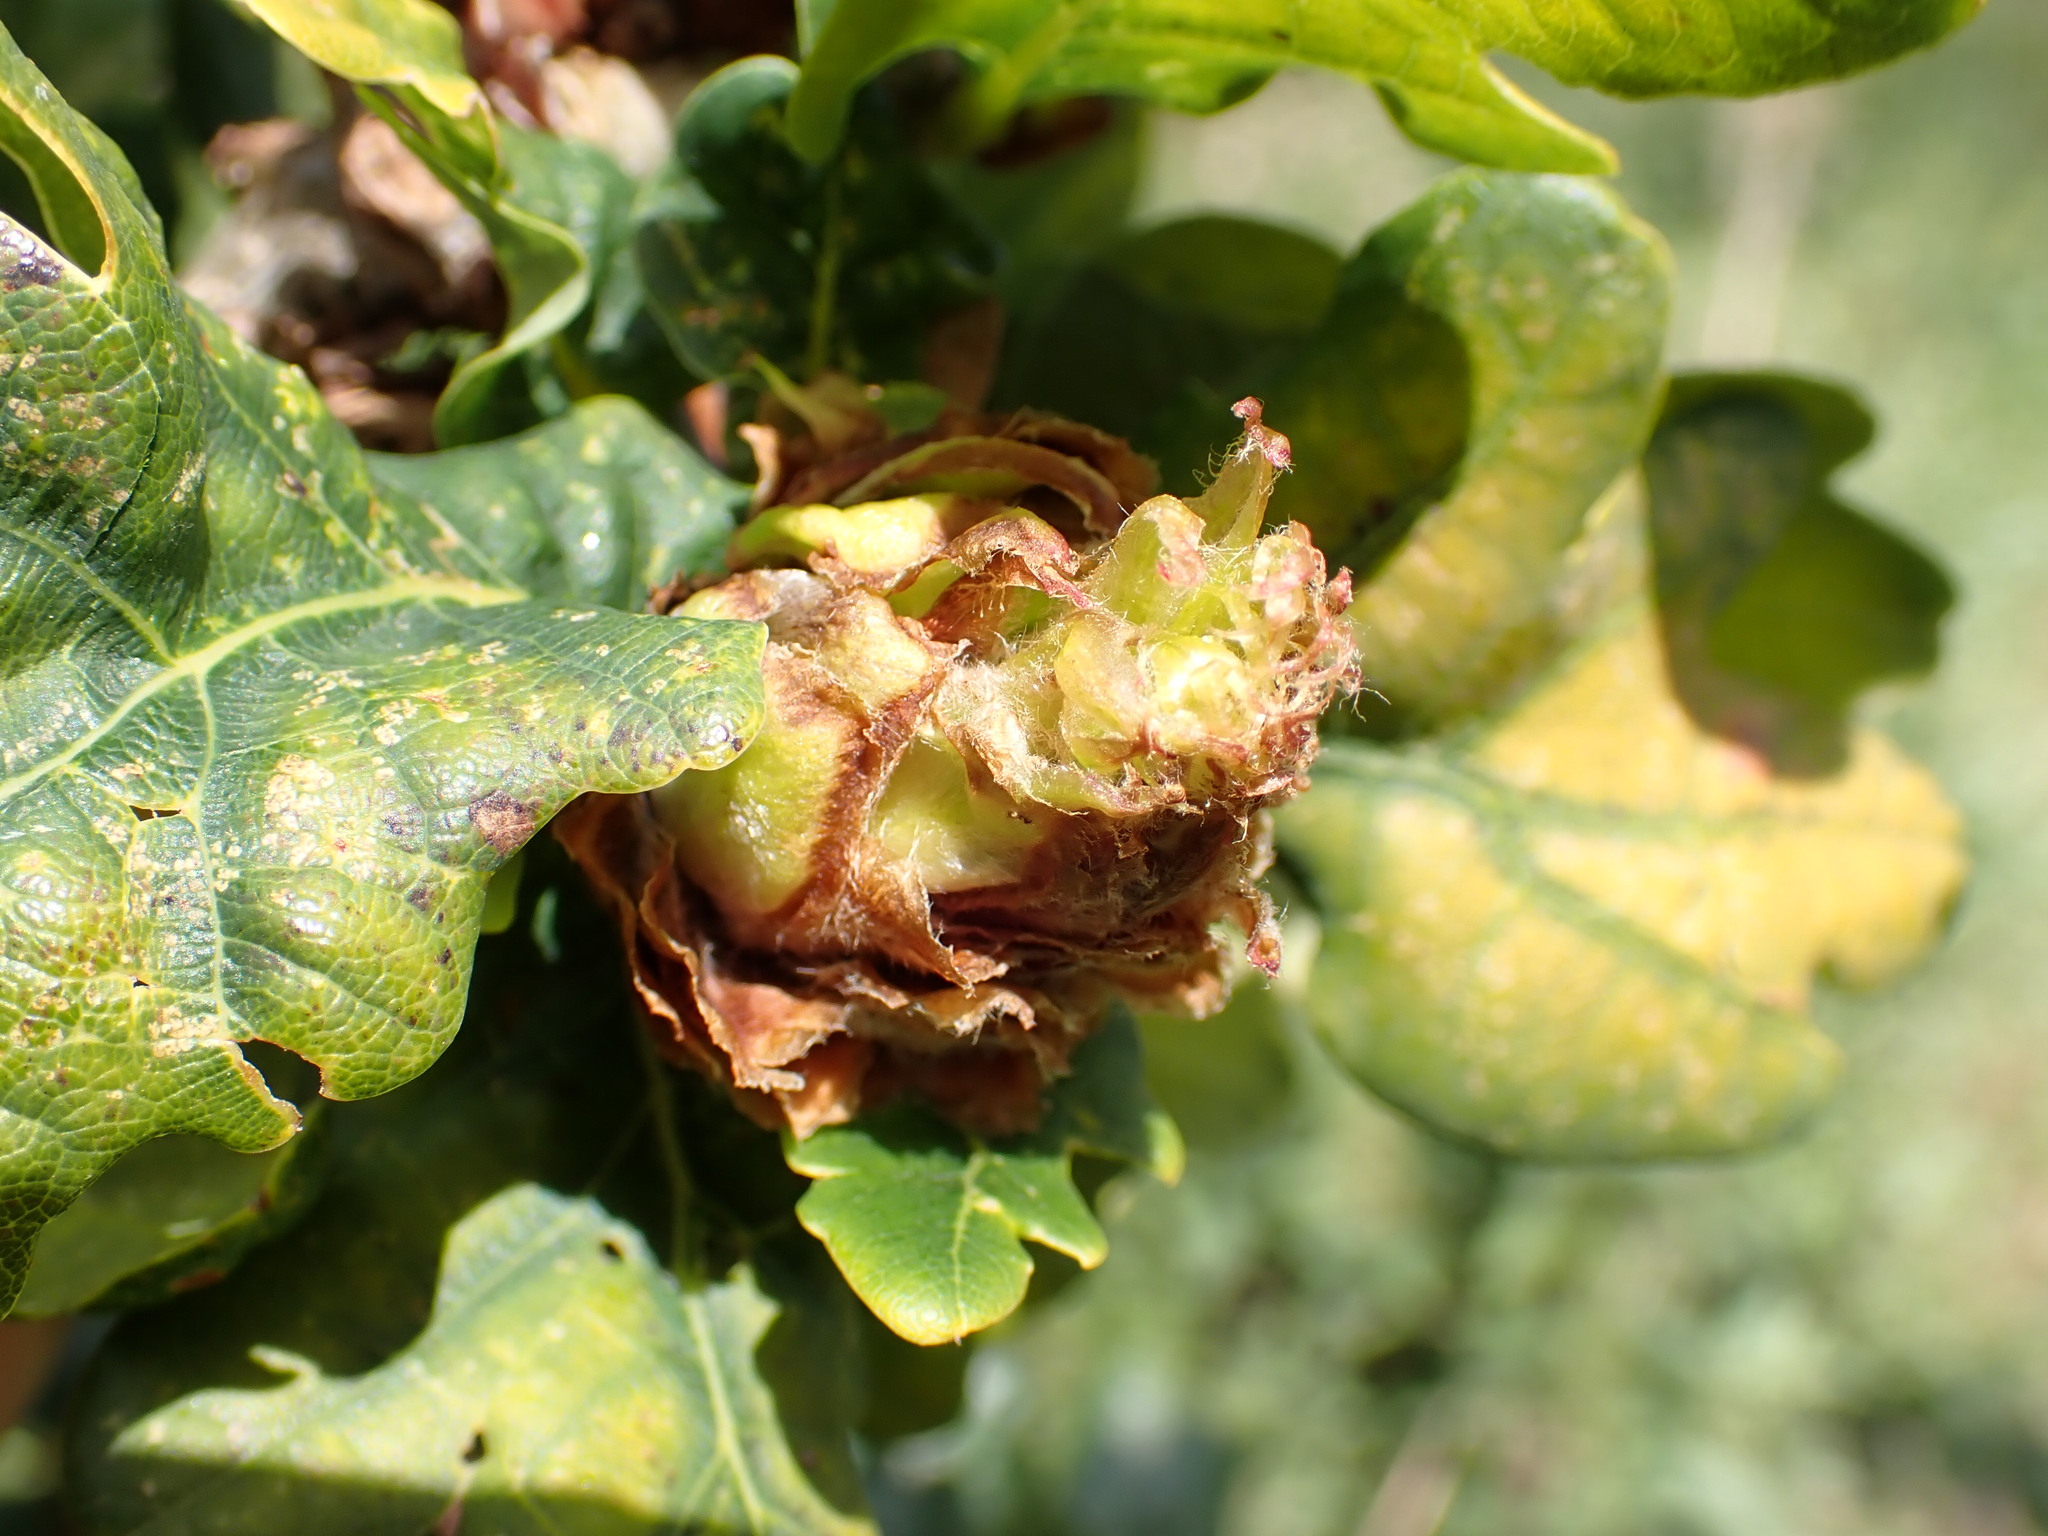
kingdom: Animalia
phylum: Arthropoda
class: Insecta
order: Hymenoptera
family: Cynipidae
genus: Andricus
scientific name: Andricus foecundatrix
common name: Artichoke gall
